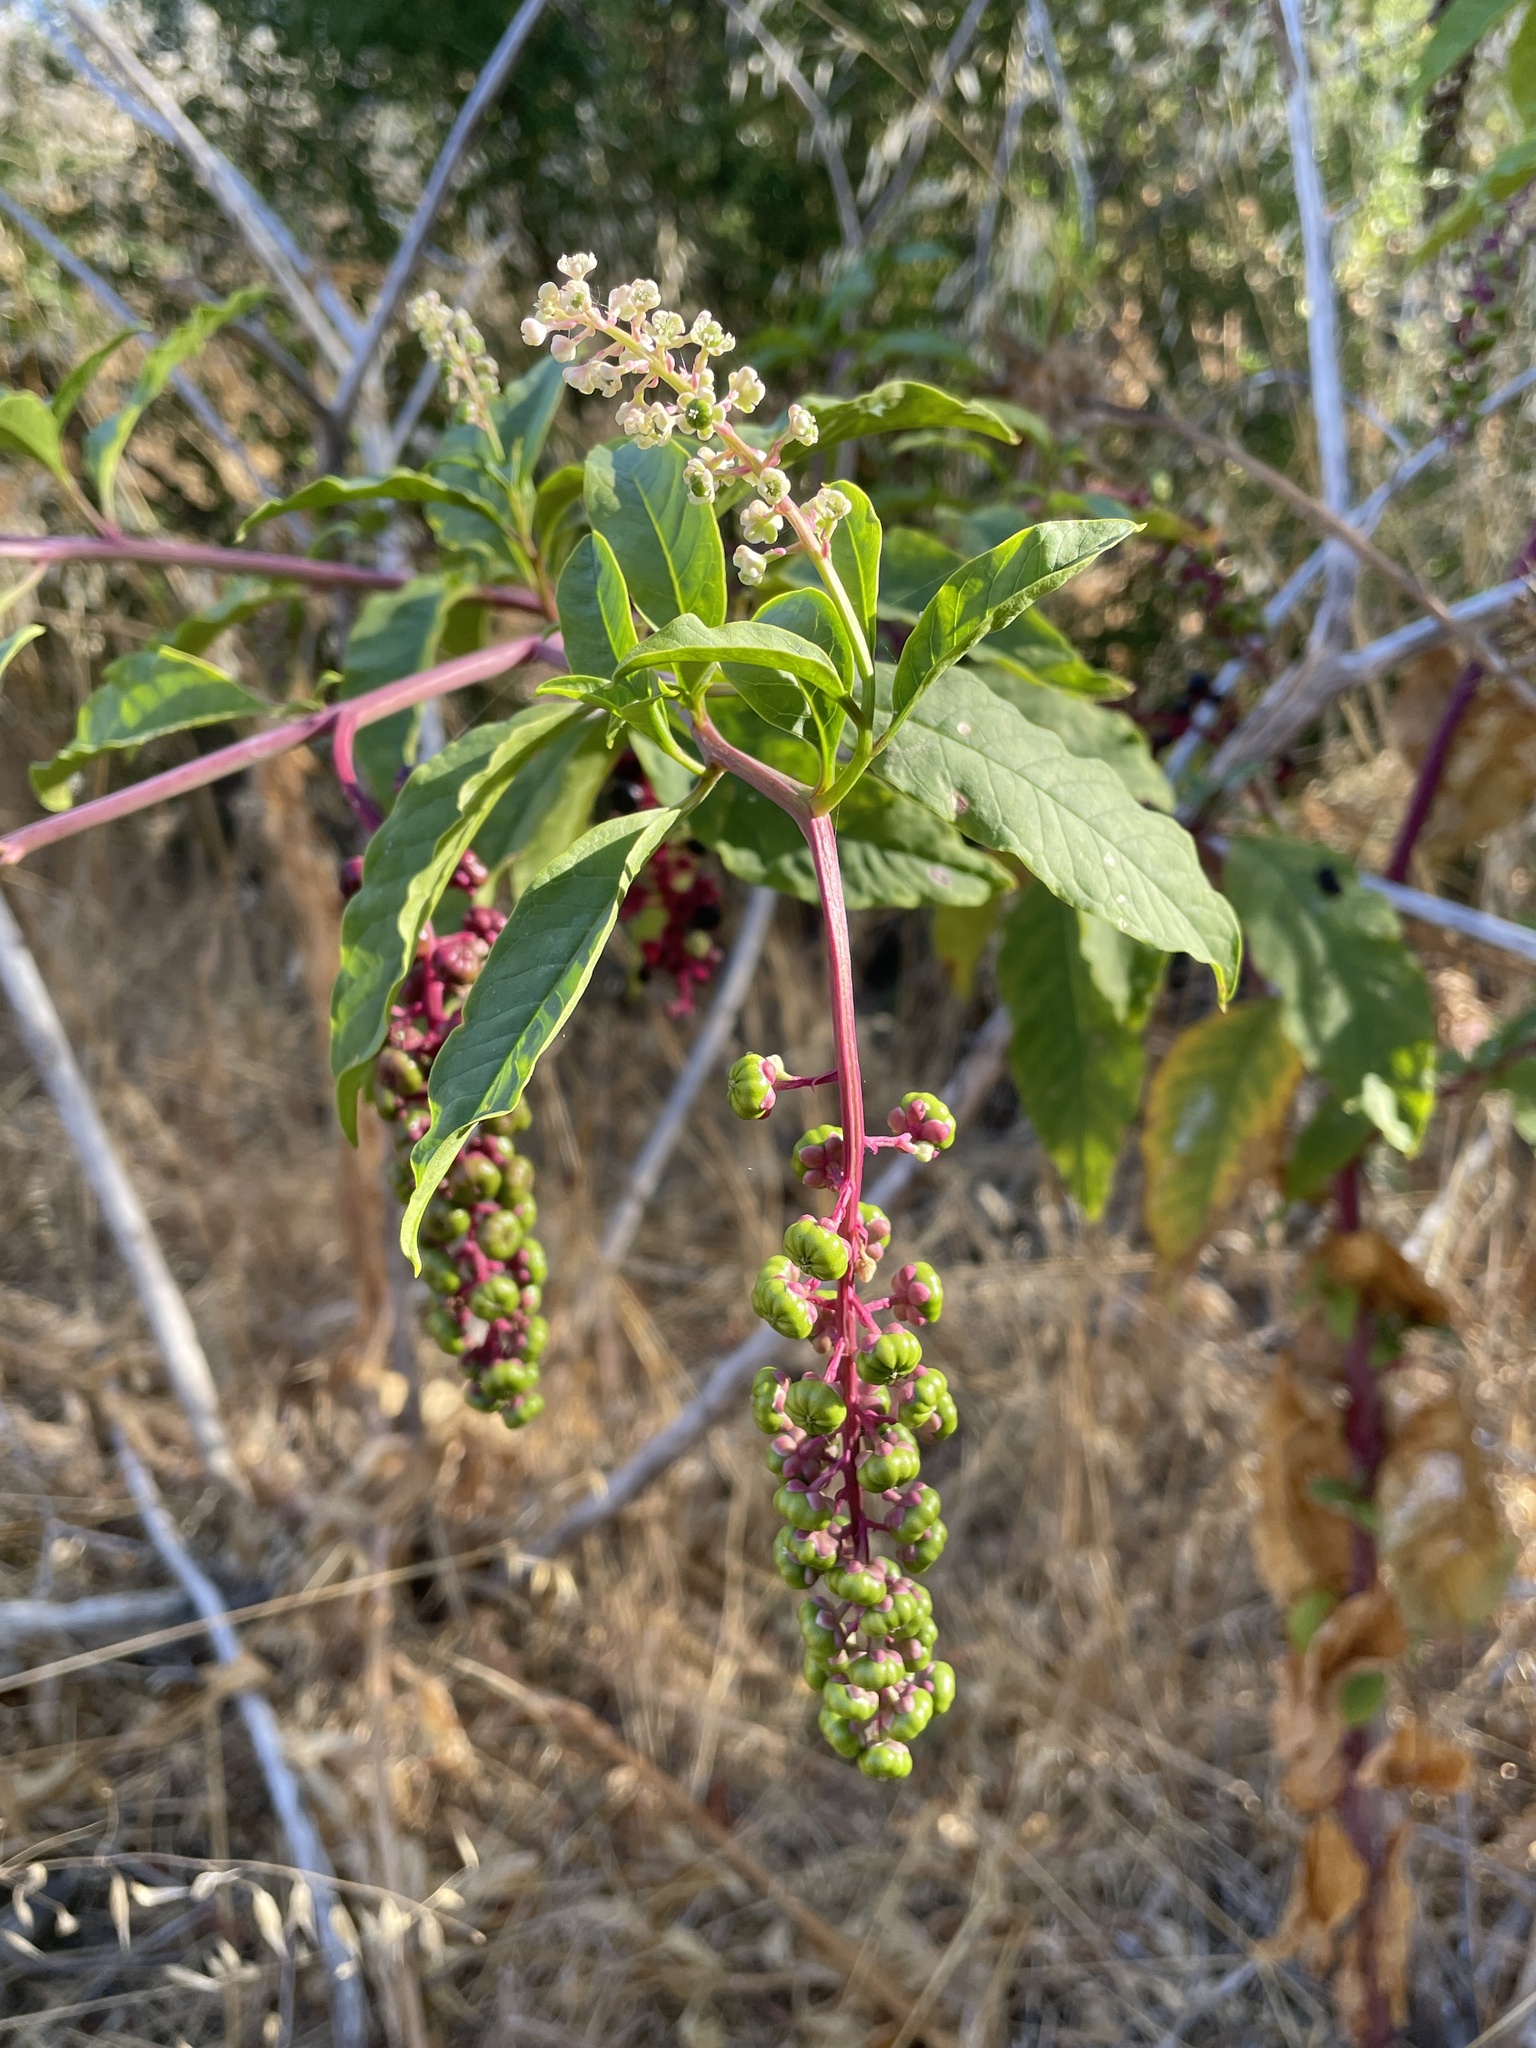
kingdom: Plantae
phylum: Tracheophyta
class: Magnoliopsida
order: Caryophyllales
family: Phytolaccaceae
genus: Phytolacca
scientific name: Phytolacca americana
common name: American pokeweed
